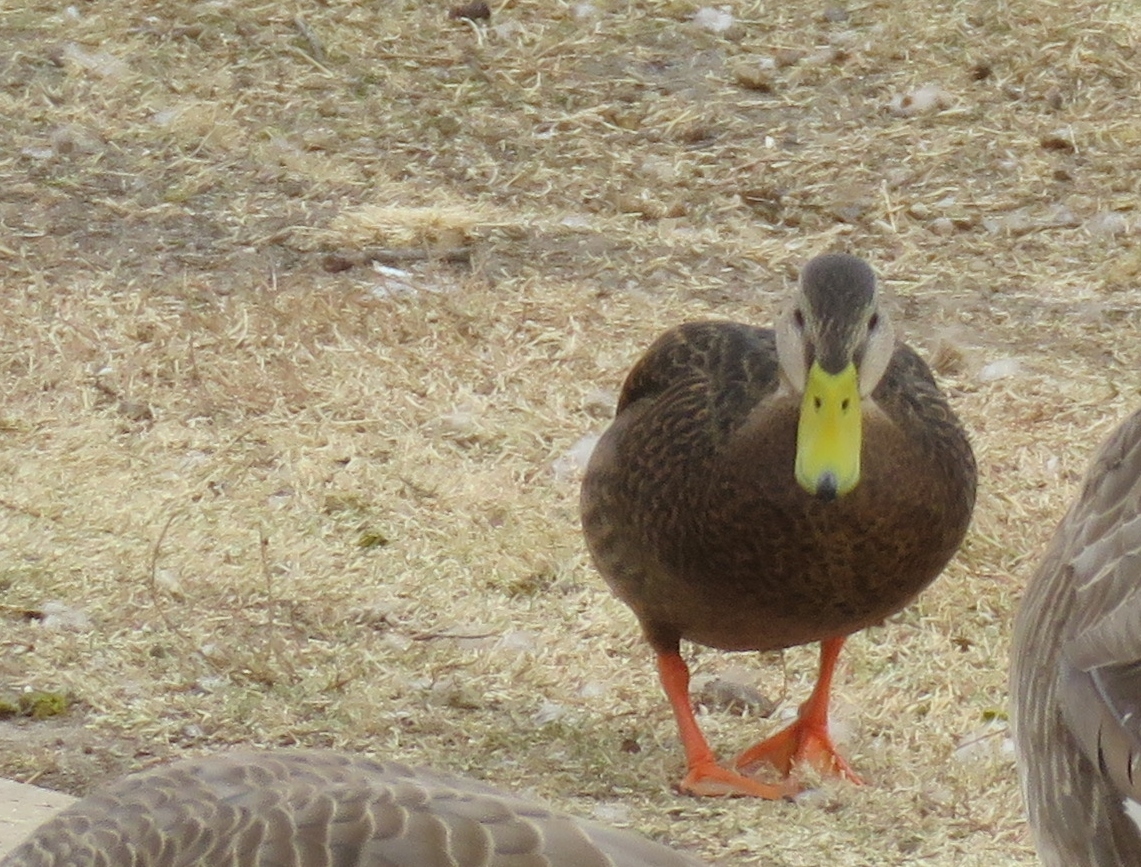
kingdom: Animalia
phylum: Chordata
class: Aves
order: Anseriformes
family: Anatidae
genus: Anas
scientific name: Anas diazi
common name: Mexican duck
